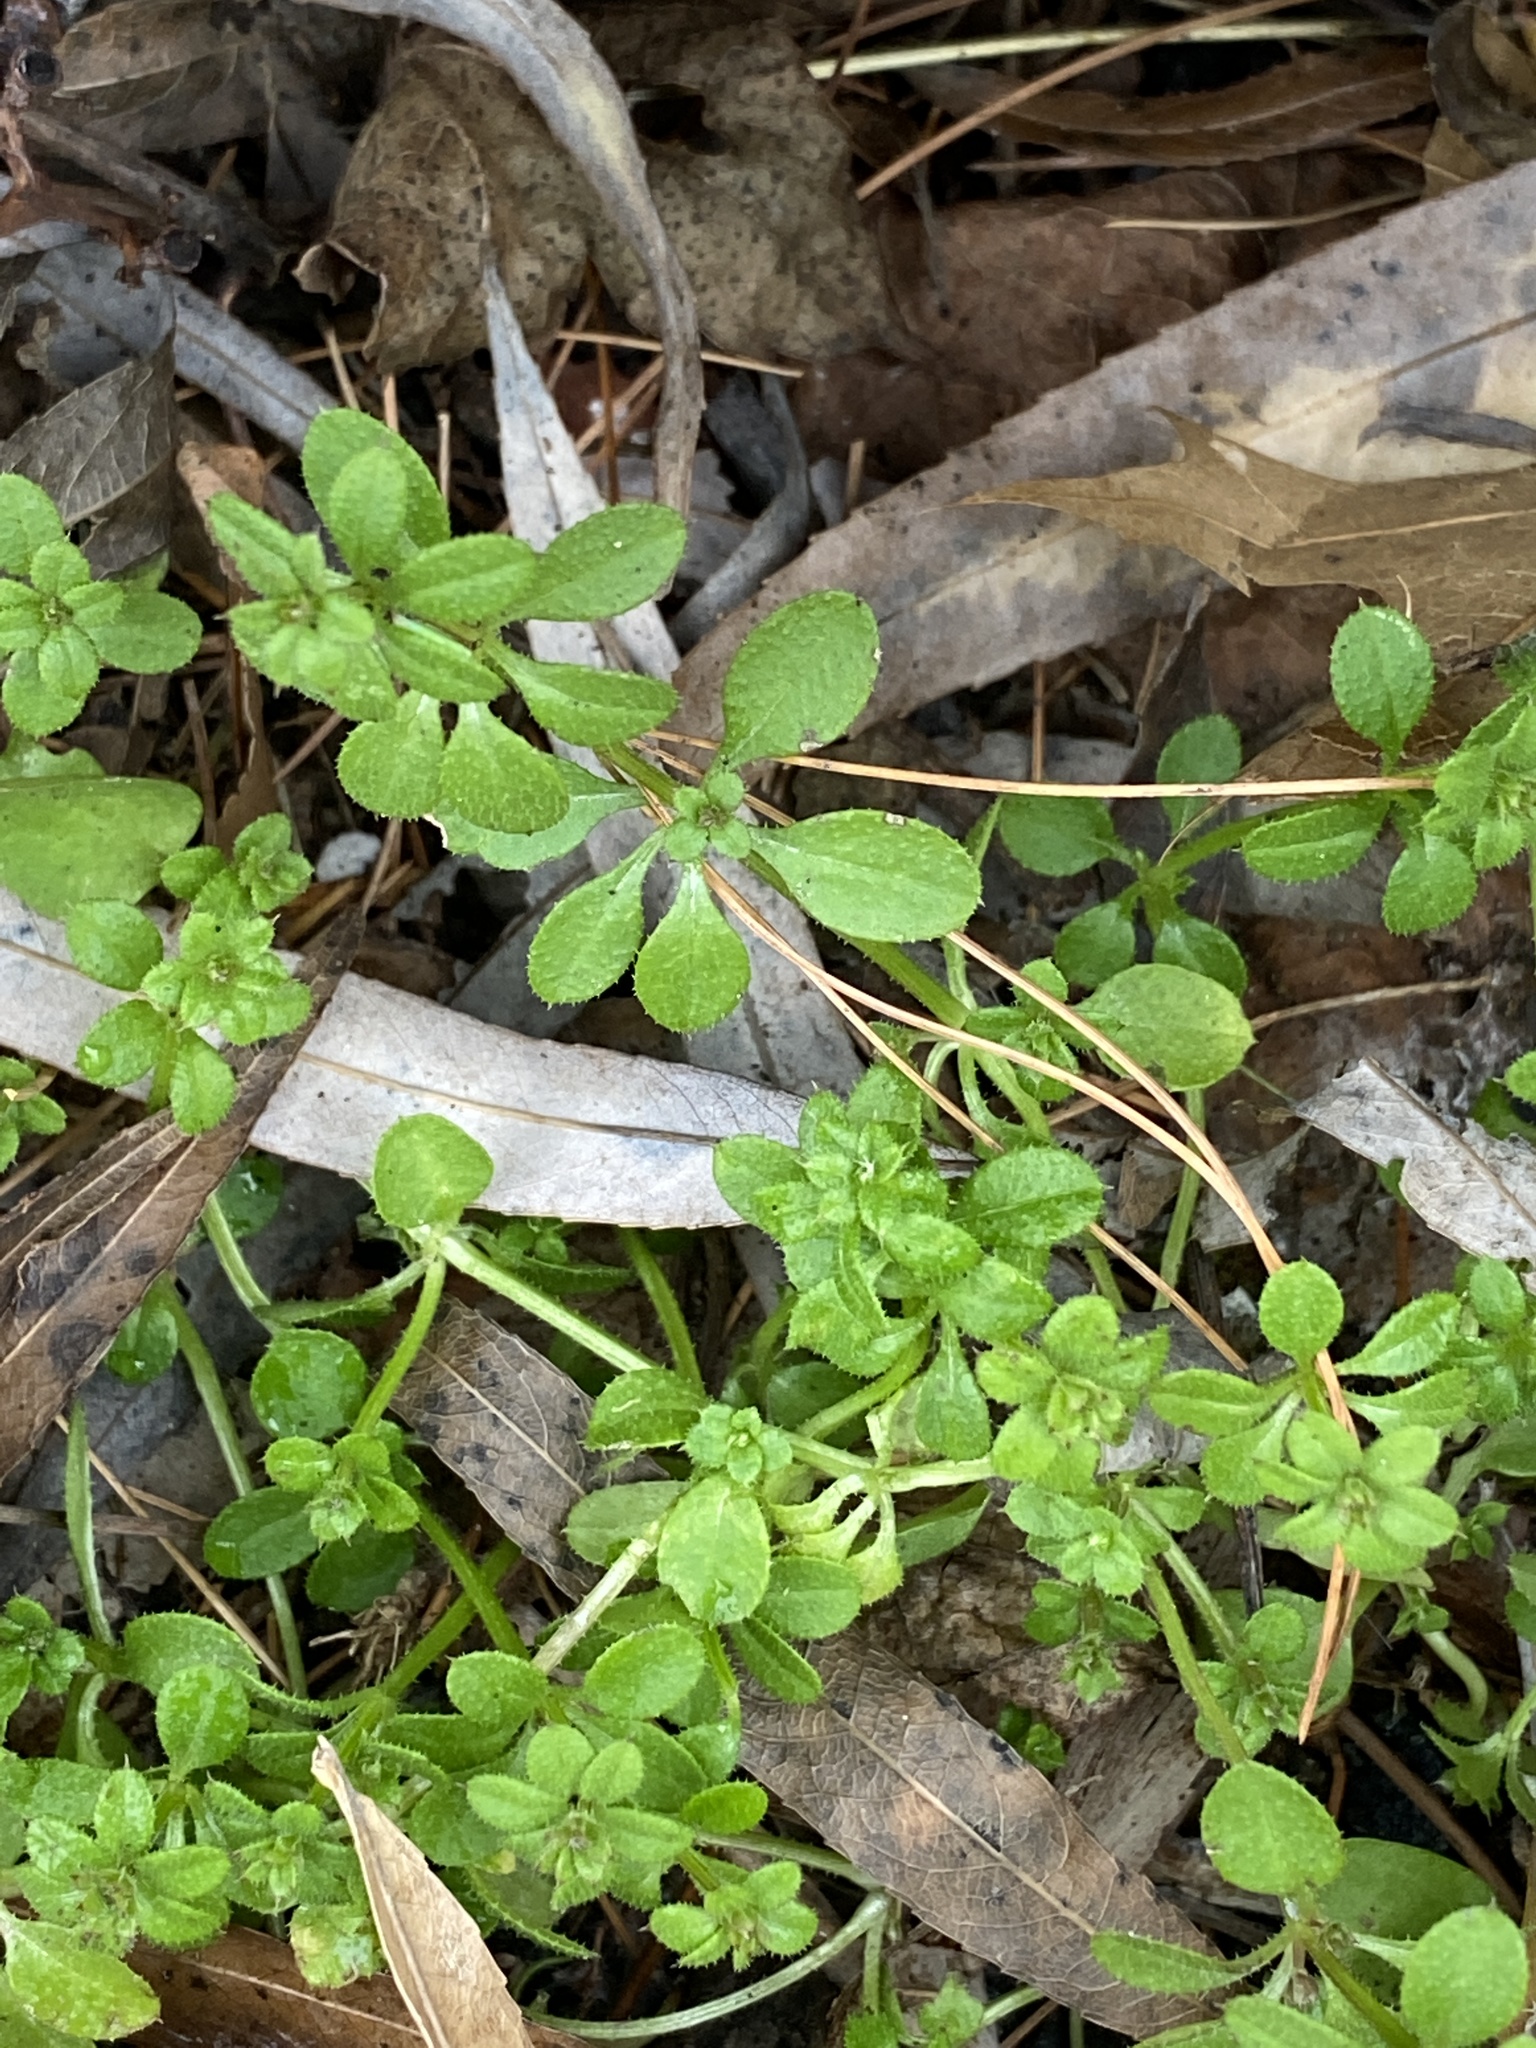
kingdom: Plantae
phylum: Tracheophyta
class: Magnoliopsida
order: Gentianales
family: Rubiaceae
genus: Galium
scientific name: Galium aparine
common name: Cleavers
